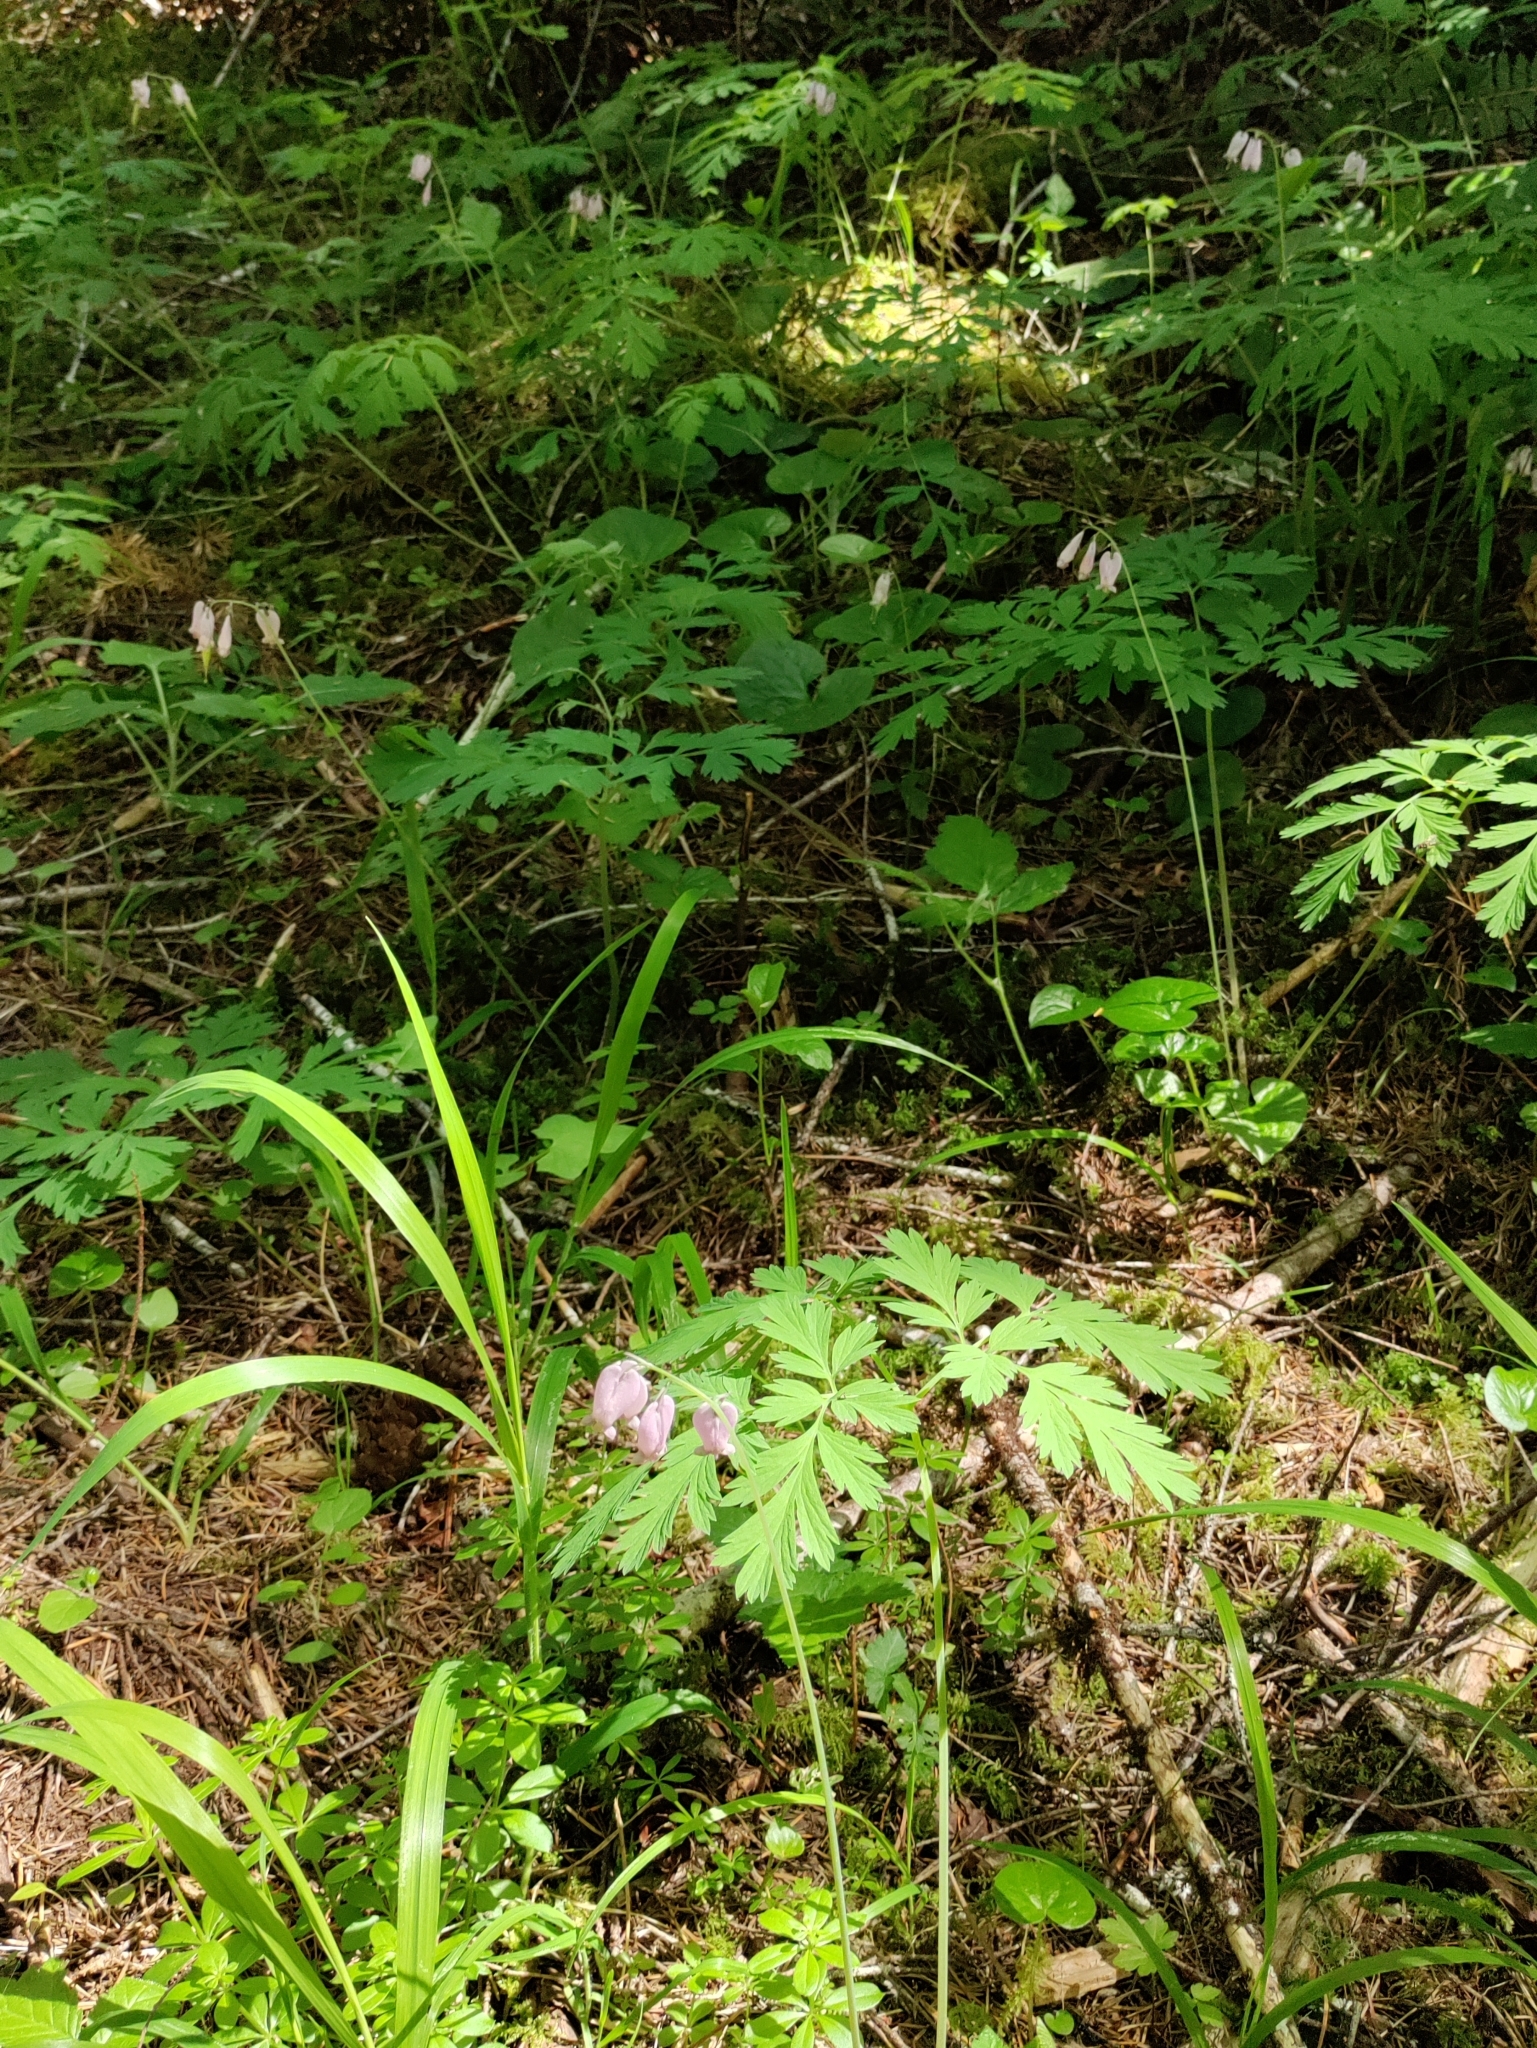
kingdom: Plantae
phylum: Tracheophyta
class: Magnoliopsida
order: Ranunculales
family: Papaveraceae
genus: Dicentra
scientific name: Dicentra formosa
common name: Bleeding-heart
